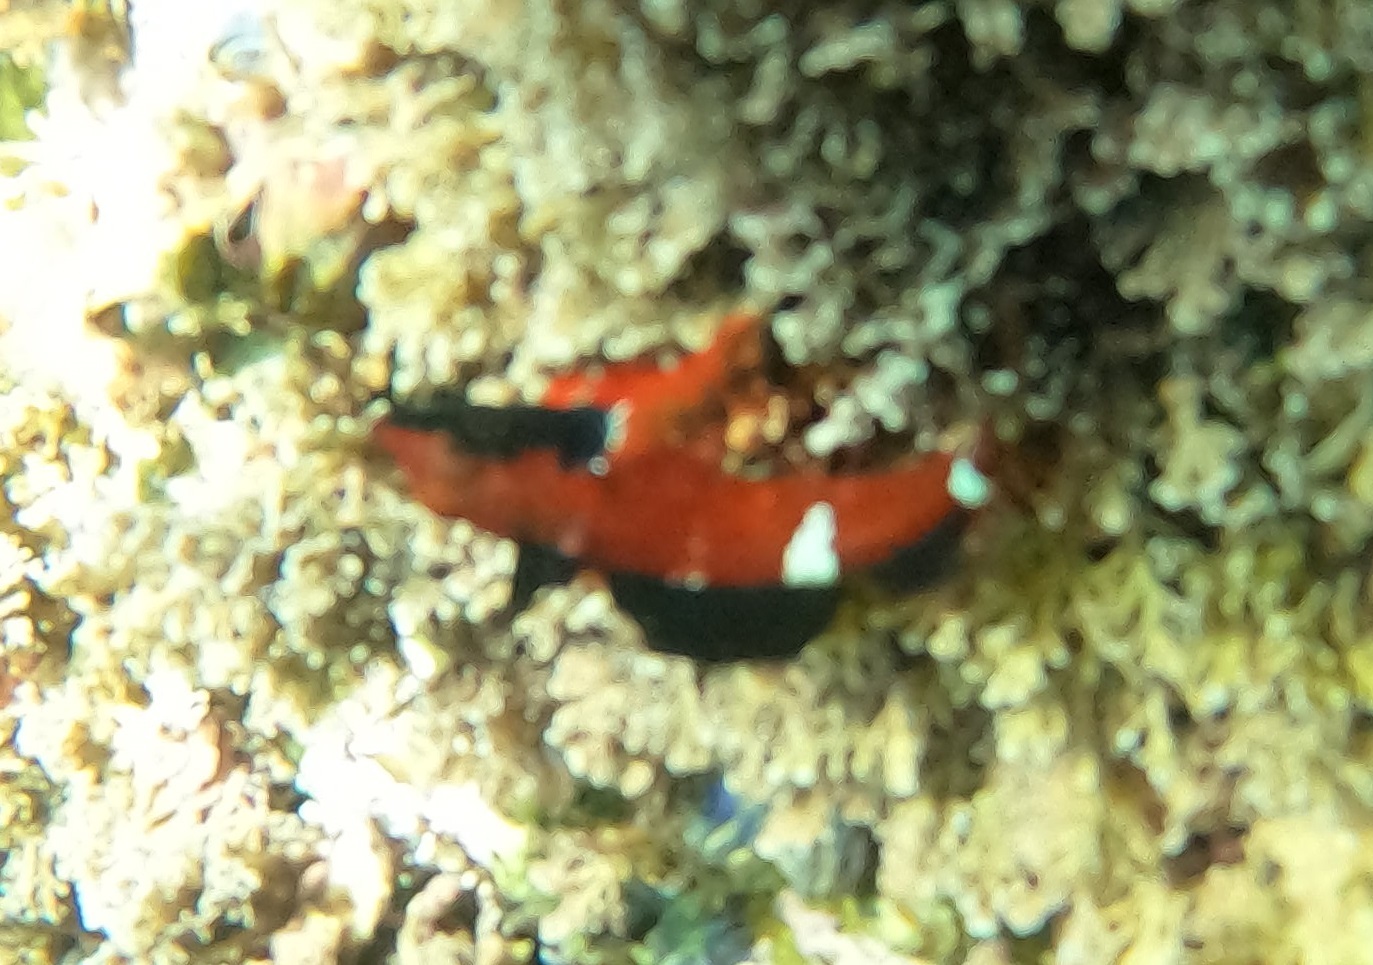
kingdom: Animalia
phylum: Chordata
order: Perciformes
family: Tripterygiidae
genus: Enneapterygius
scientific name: Enneapterygius atrogulare
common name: Blackthroat triplefin
